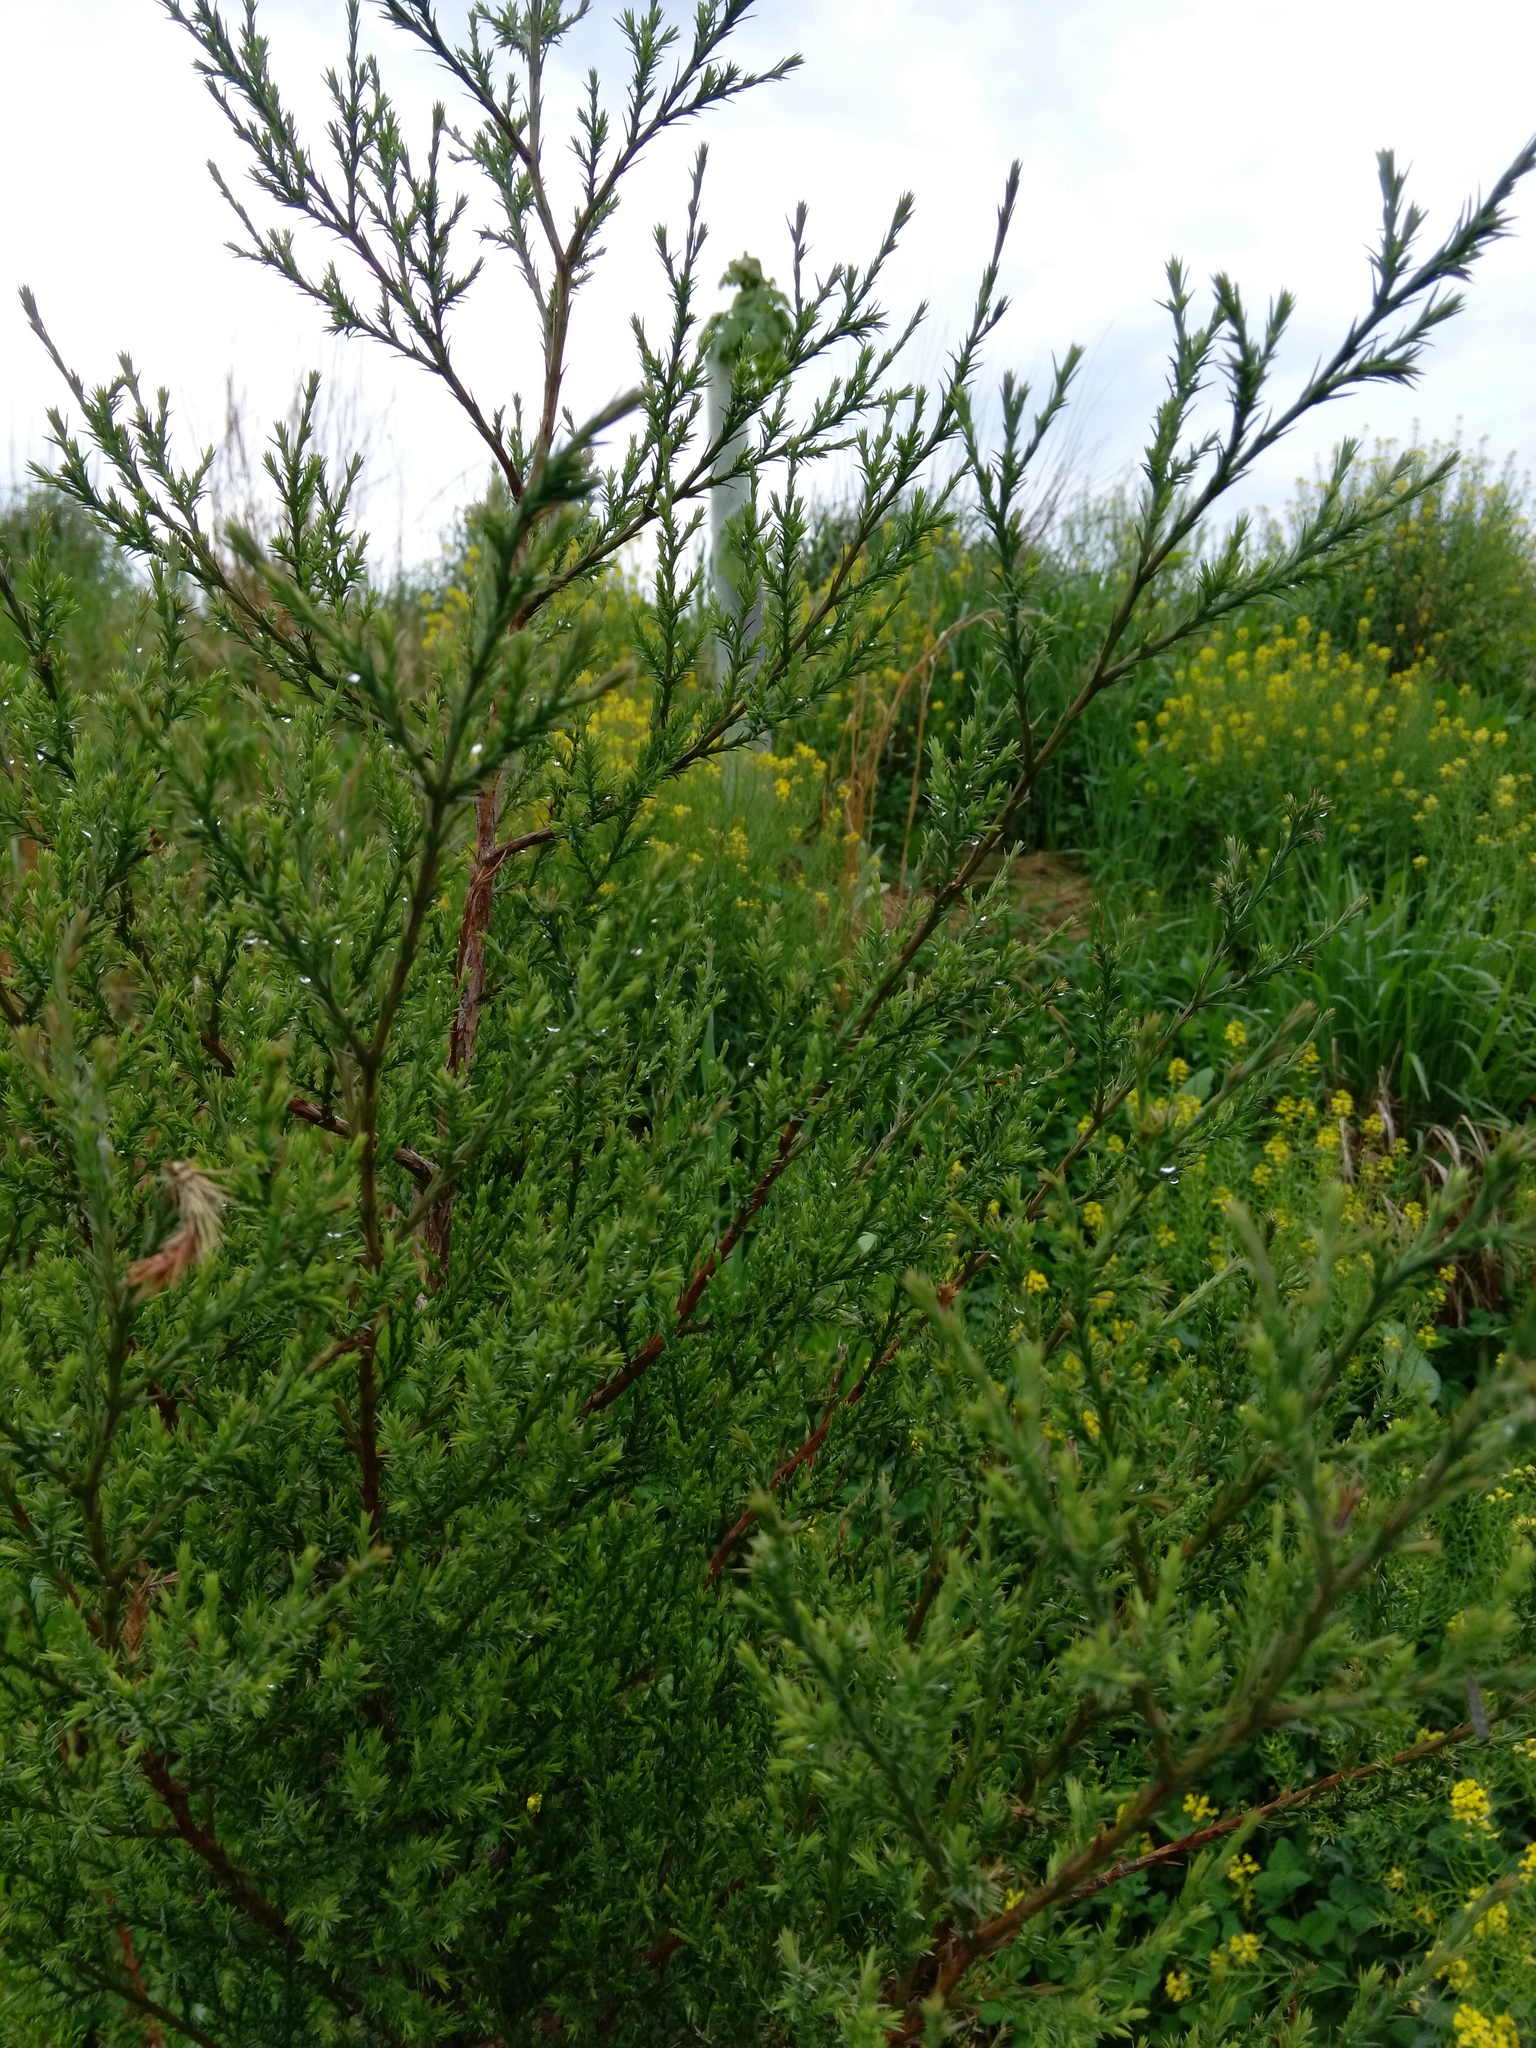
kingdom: Plantae
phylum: Tracheophyta
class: Pinopsida
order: Pinales
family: Cupressaceae
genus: Juniperus
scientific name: Juniperus virginiana
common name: Red juniper
